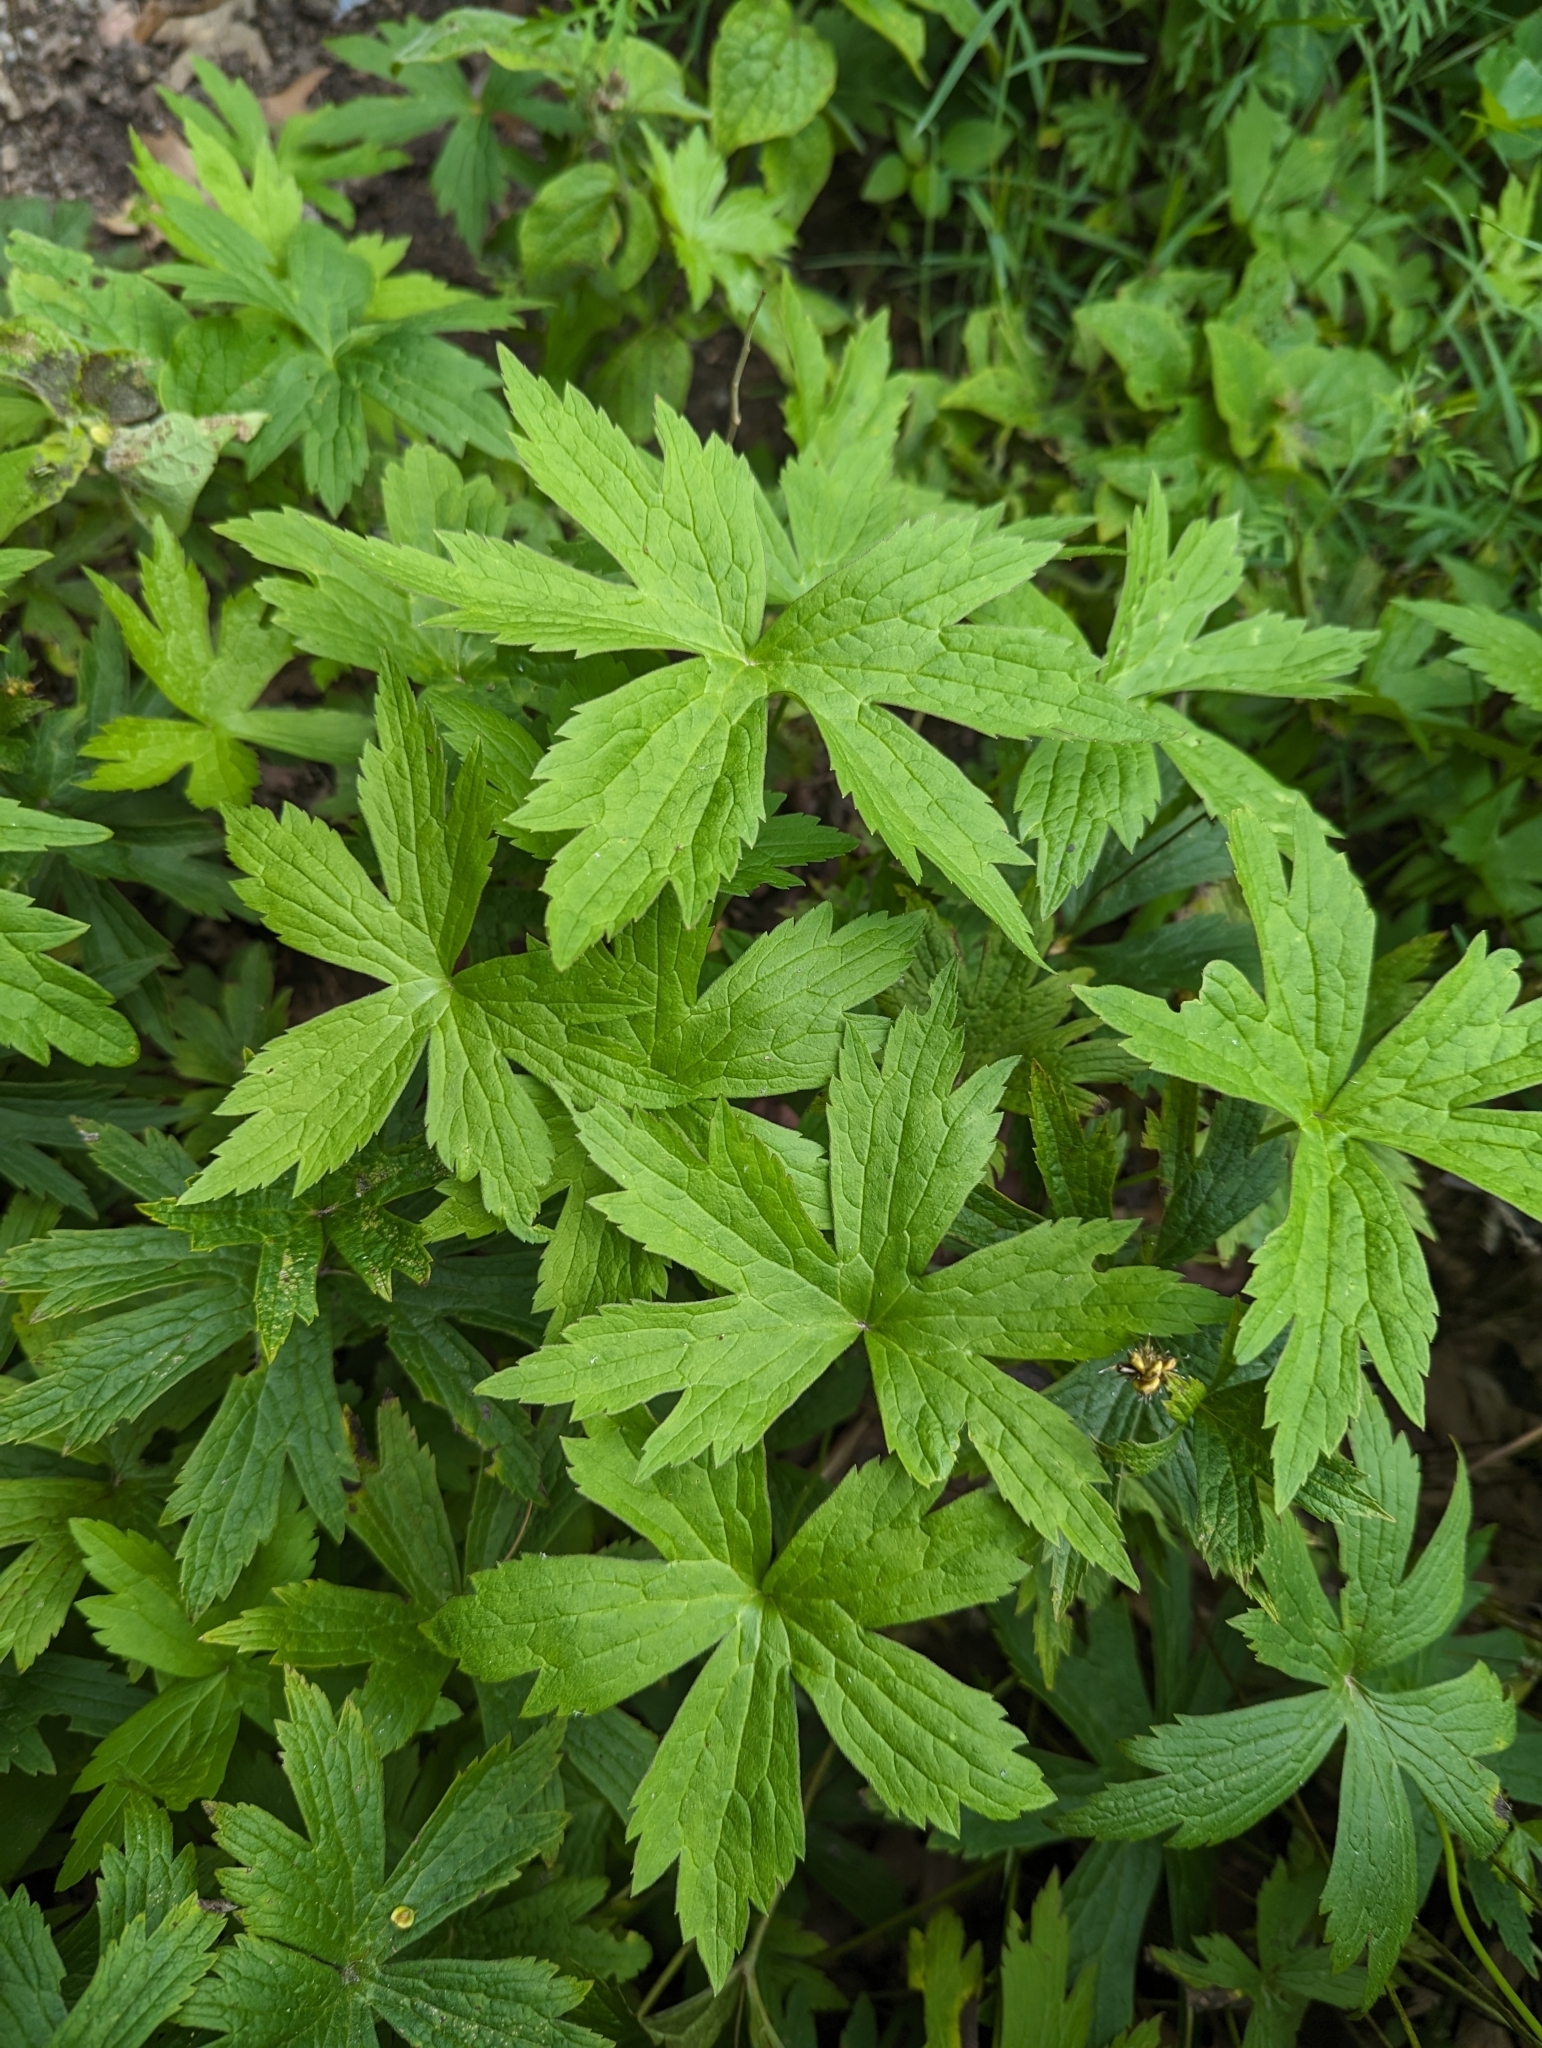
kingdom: Plantae
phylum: Tracheophyta
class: Magnoliopsida
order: Ranunculales
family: Ranunculaceae
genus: Anemonastrum
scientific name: Anemonastrum canadense
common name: Canada anemone
